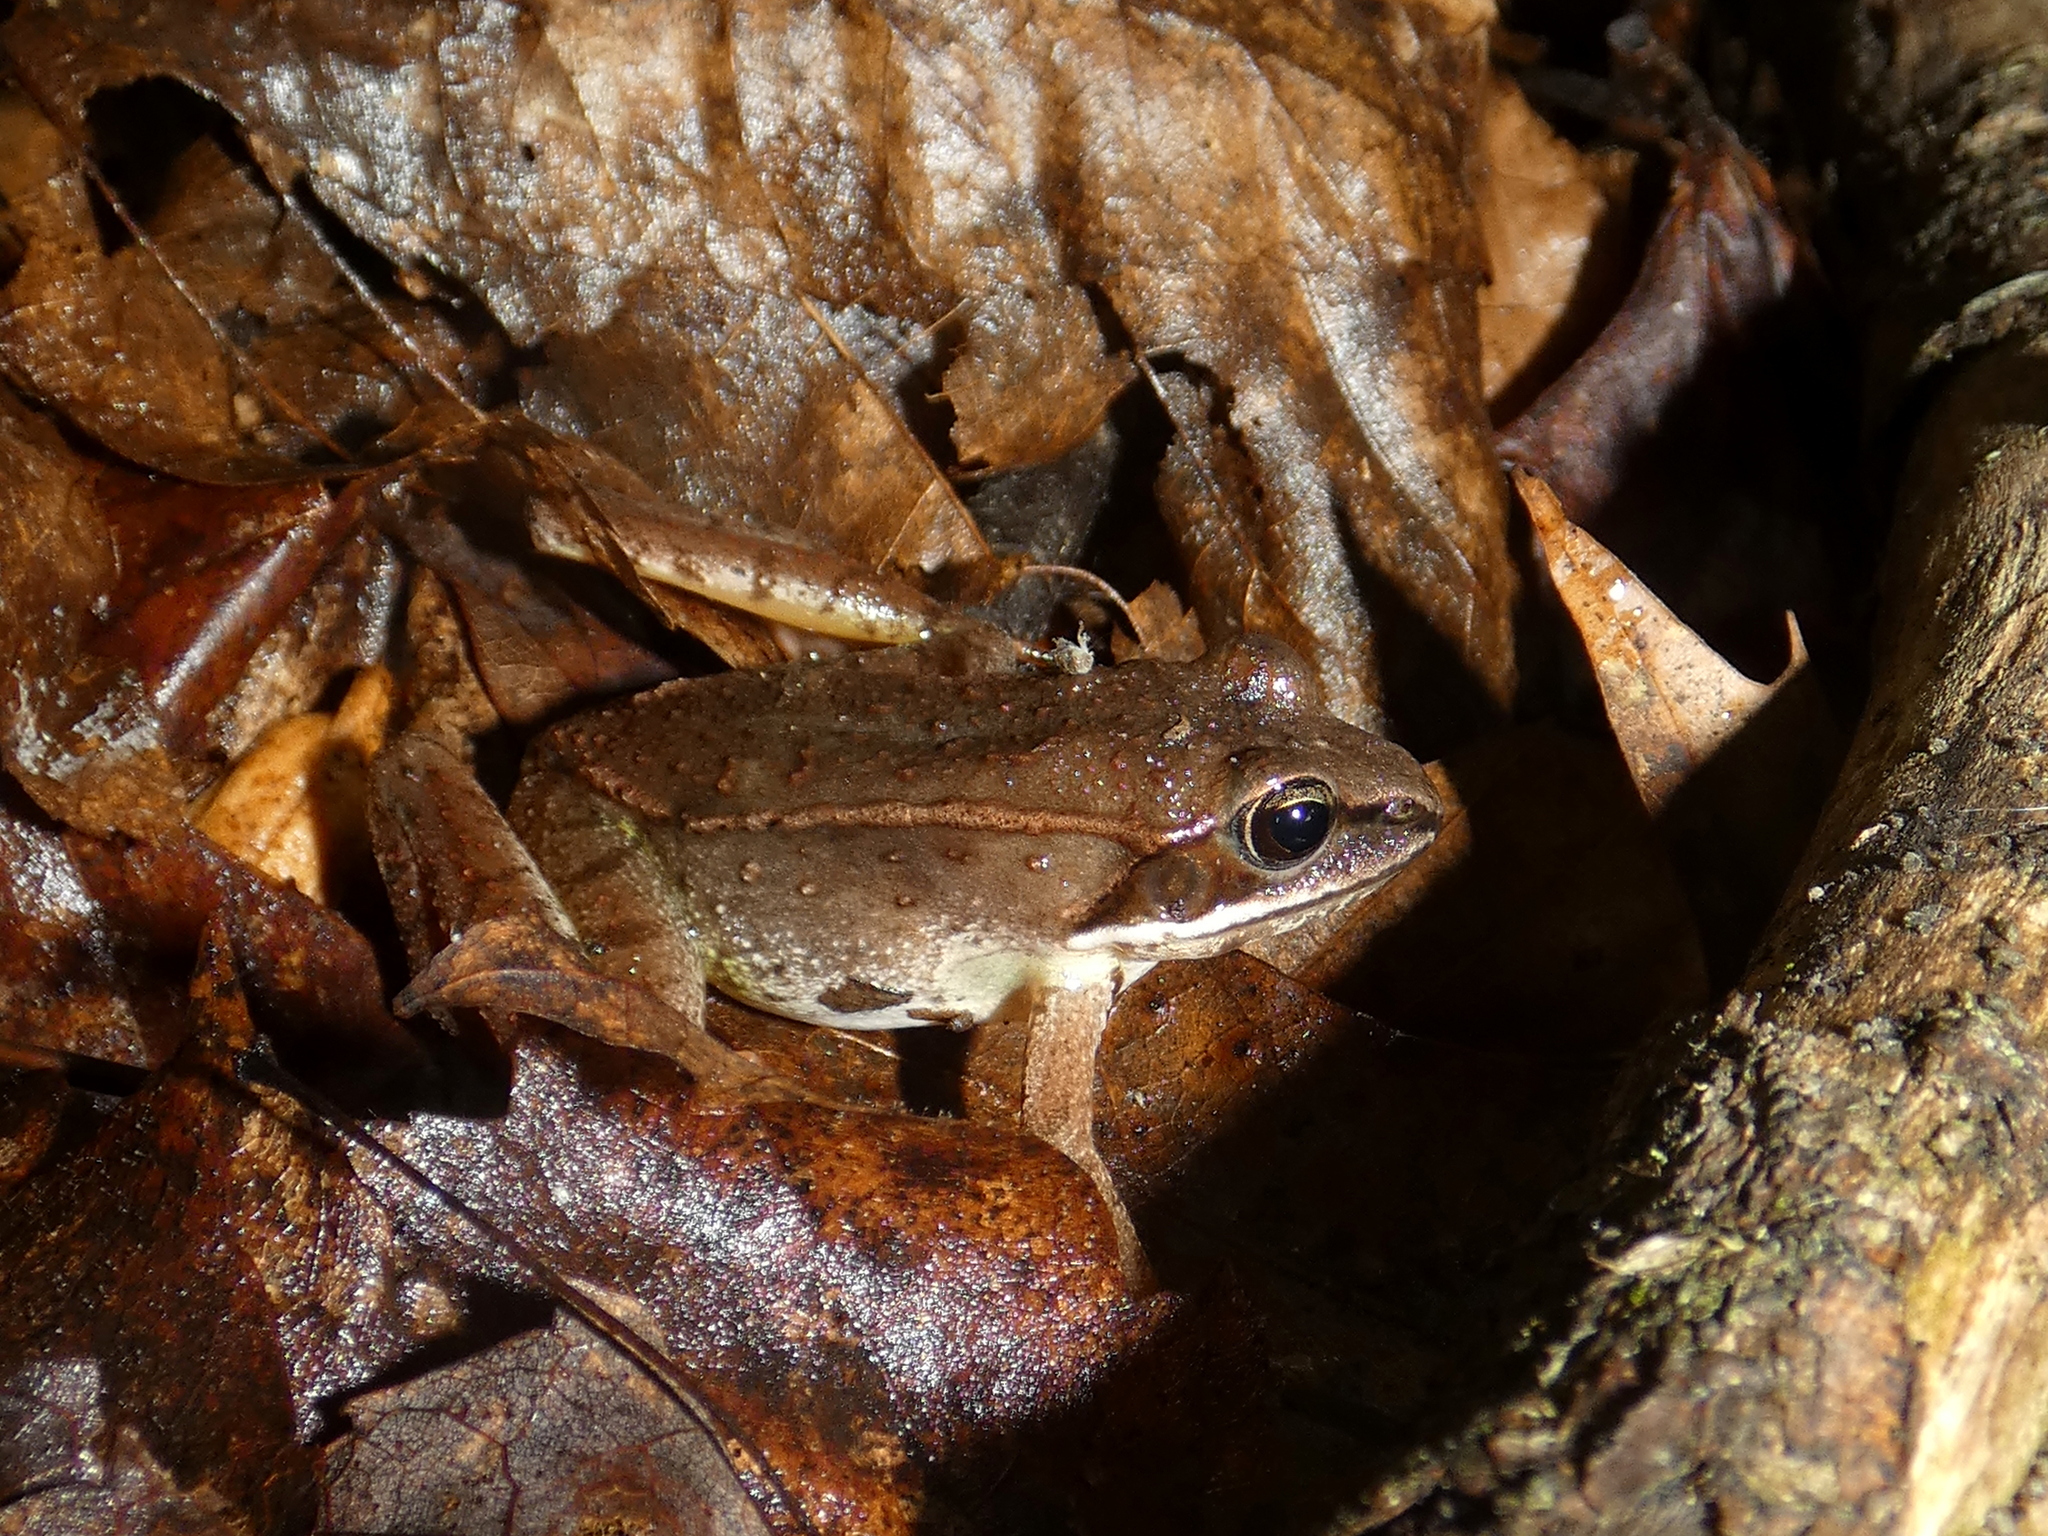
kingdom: Animalia
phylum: Chordata
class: Amphibia
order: Anura
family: Ranidae
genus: Lithobates
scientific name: Lithobates sylvaticus
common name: Wood frog
